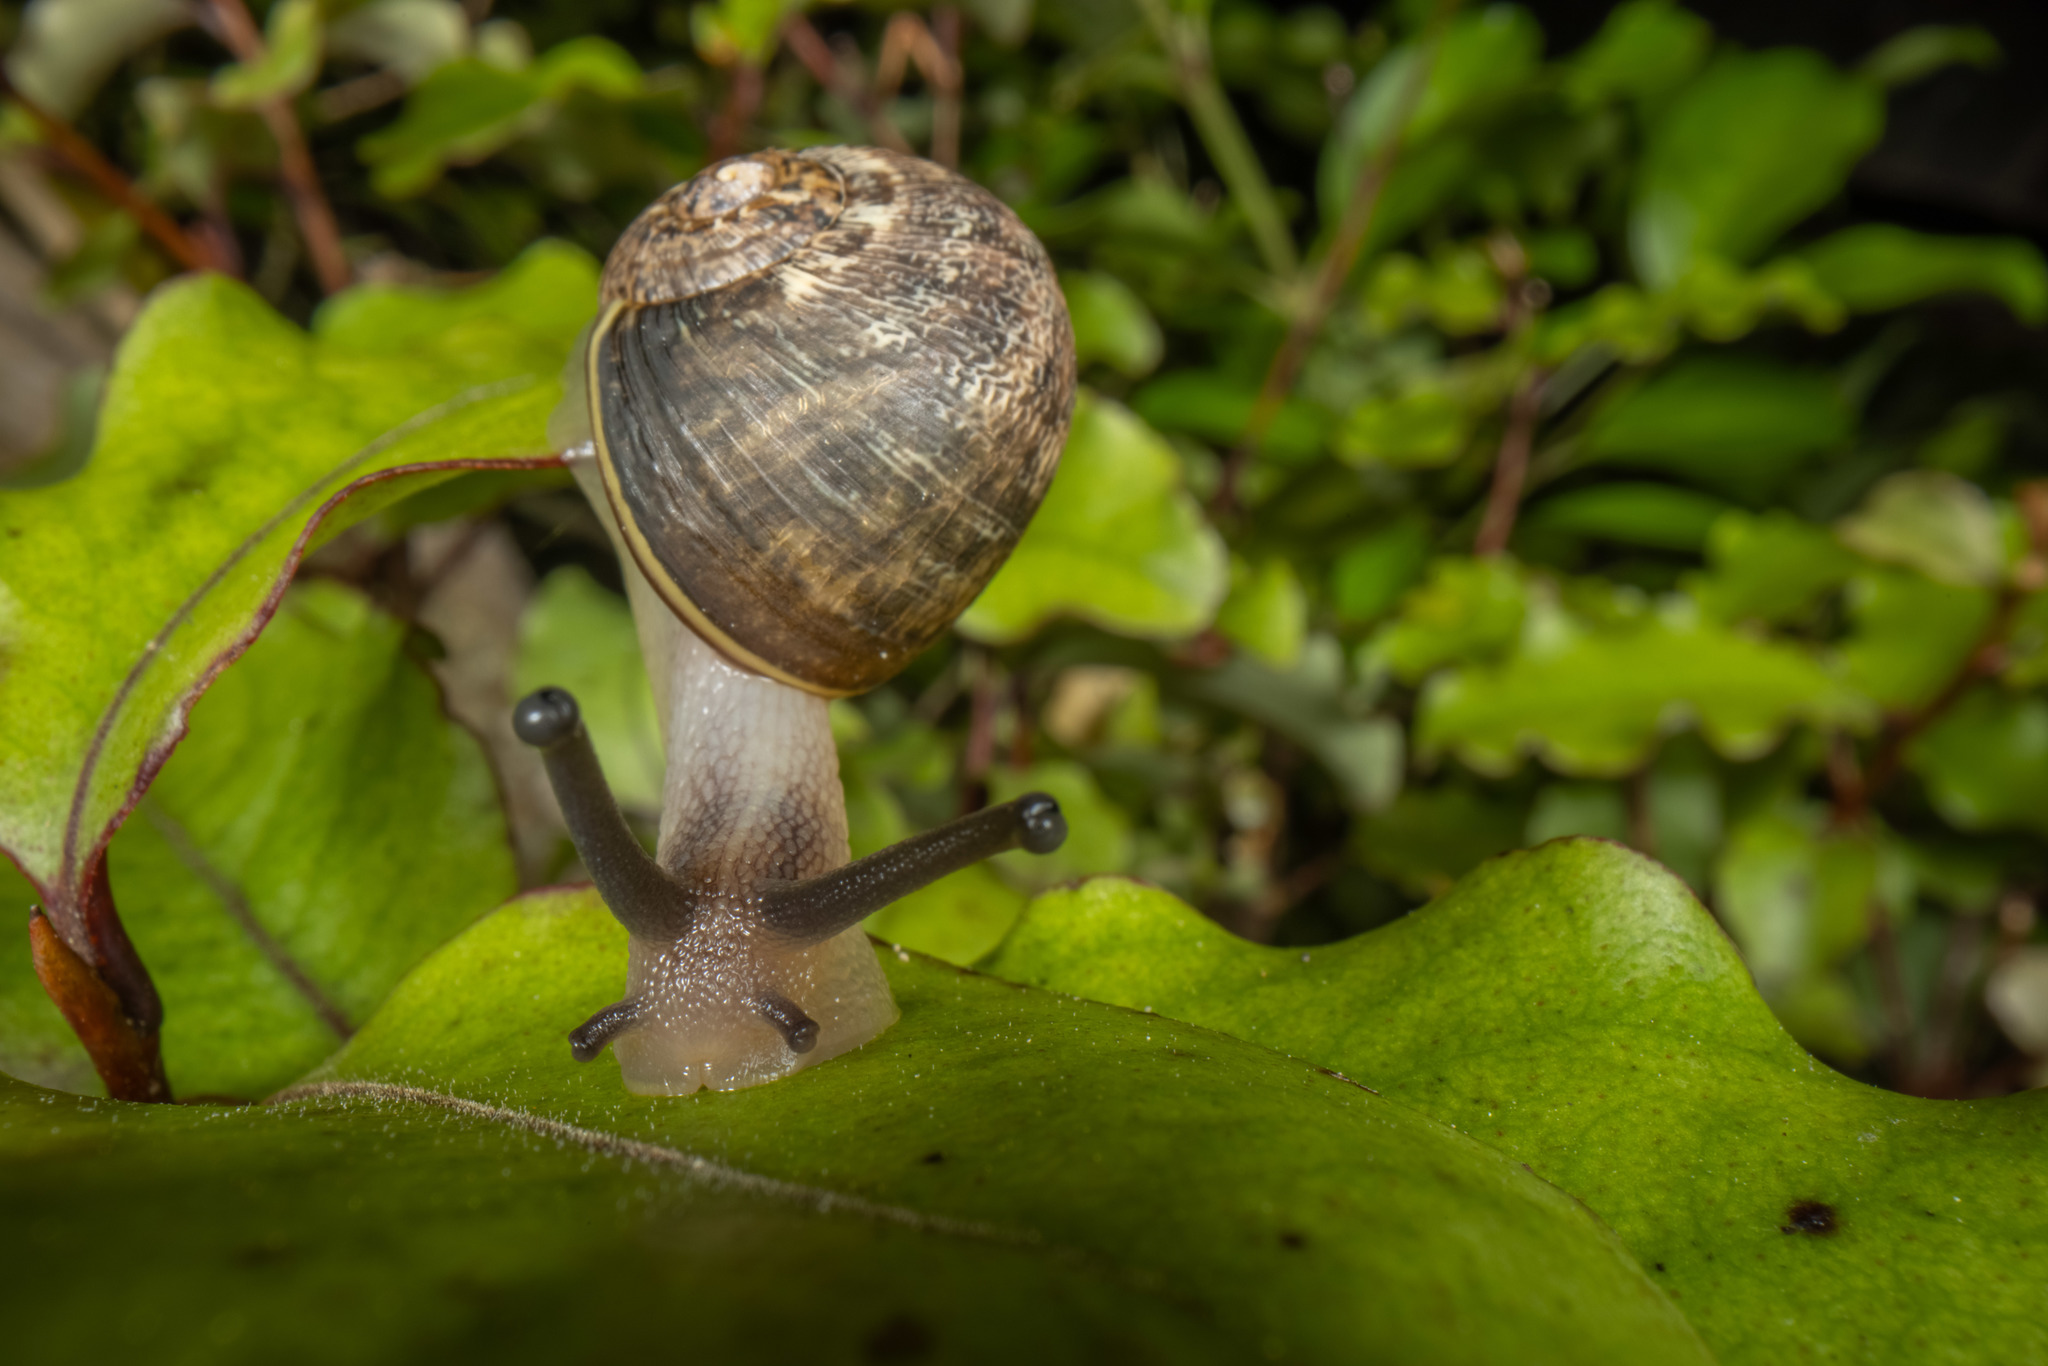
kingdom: Animalia
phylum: Mollusca
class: Gastropoda
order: Stylommatophora
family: Helicidae
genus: Cornu
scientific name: Cornu aspersum
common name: Brown garden snail
